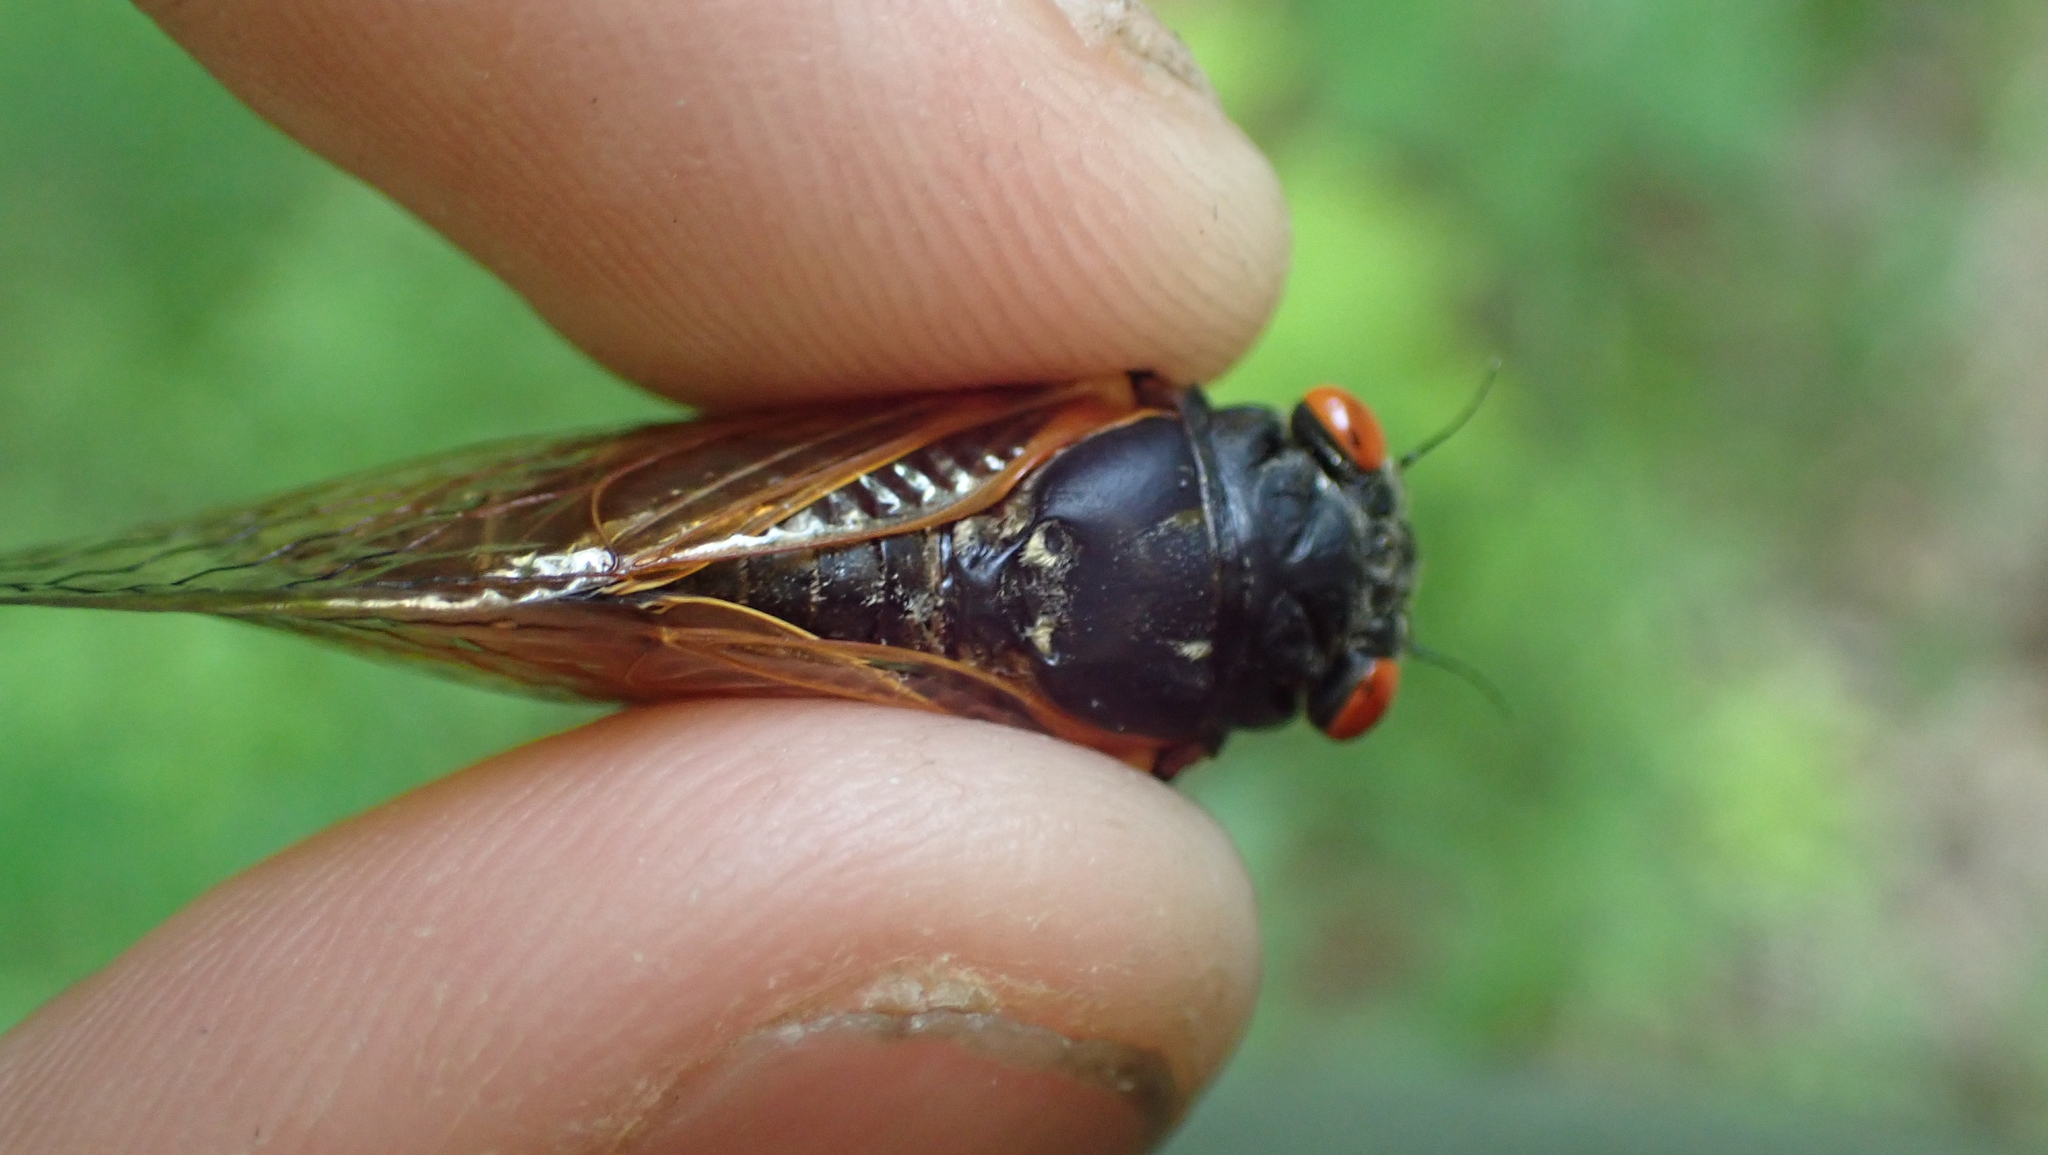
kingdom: Animalia
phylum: Arthropoda
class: Insecta
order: Hemiptera
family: Cicadidae
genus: Magicicada
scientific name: Magicicada cassini
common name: Cassin's 17-year cicada
